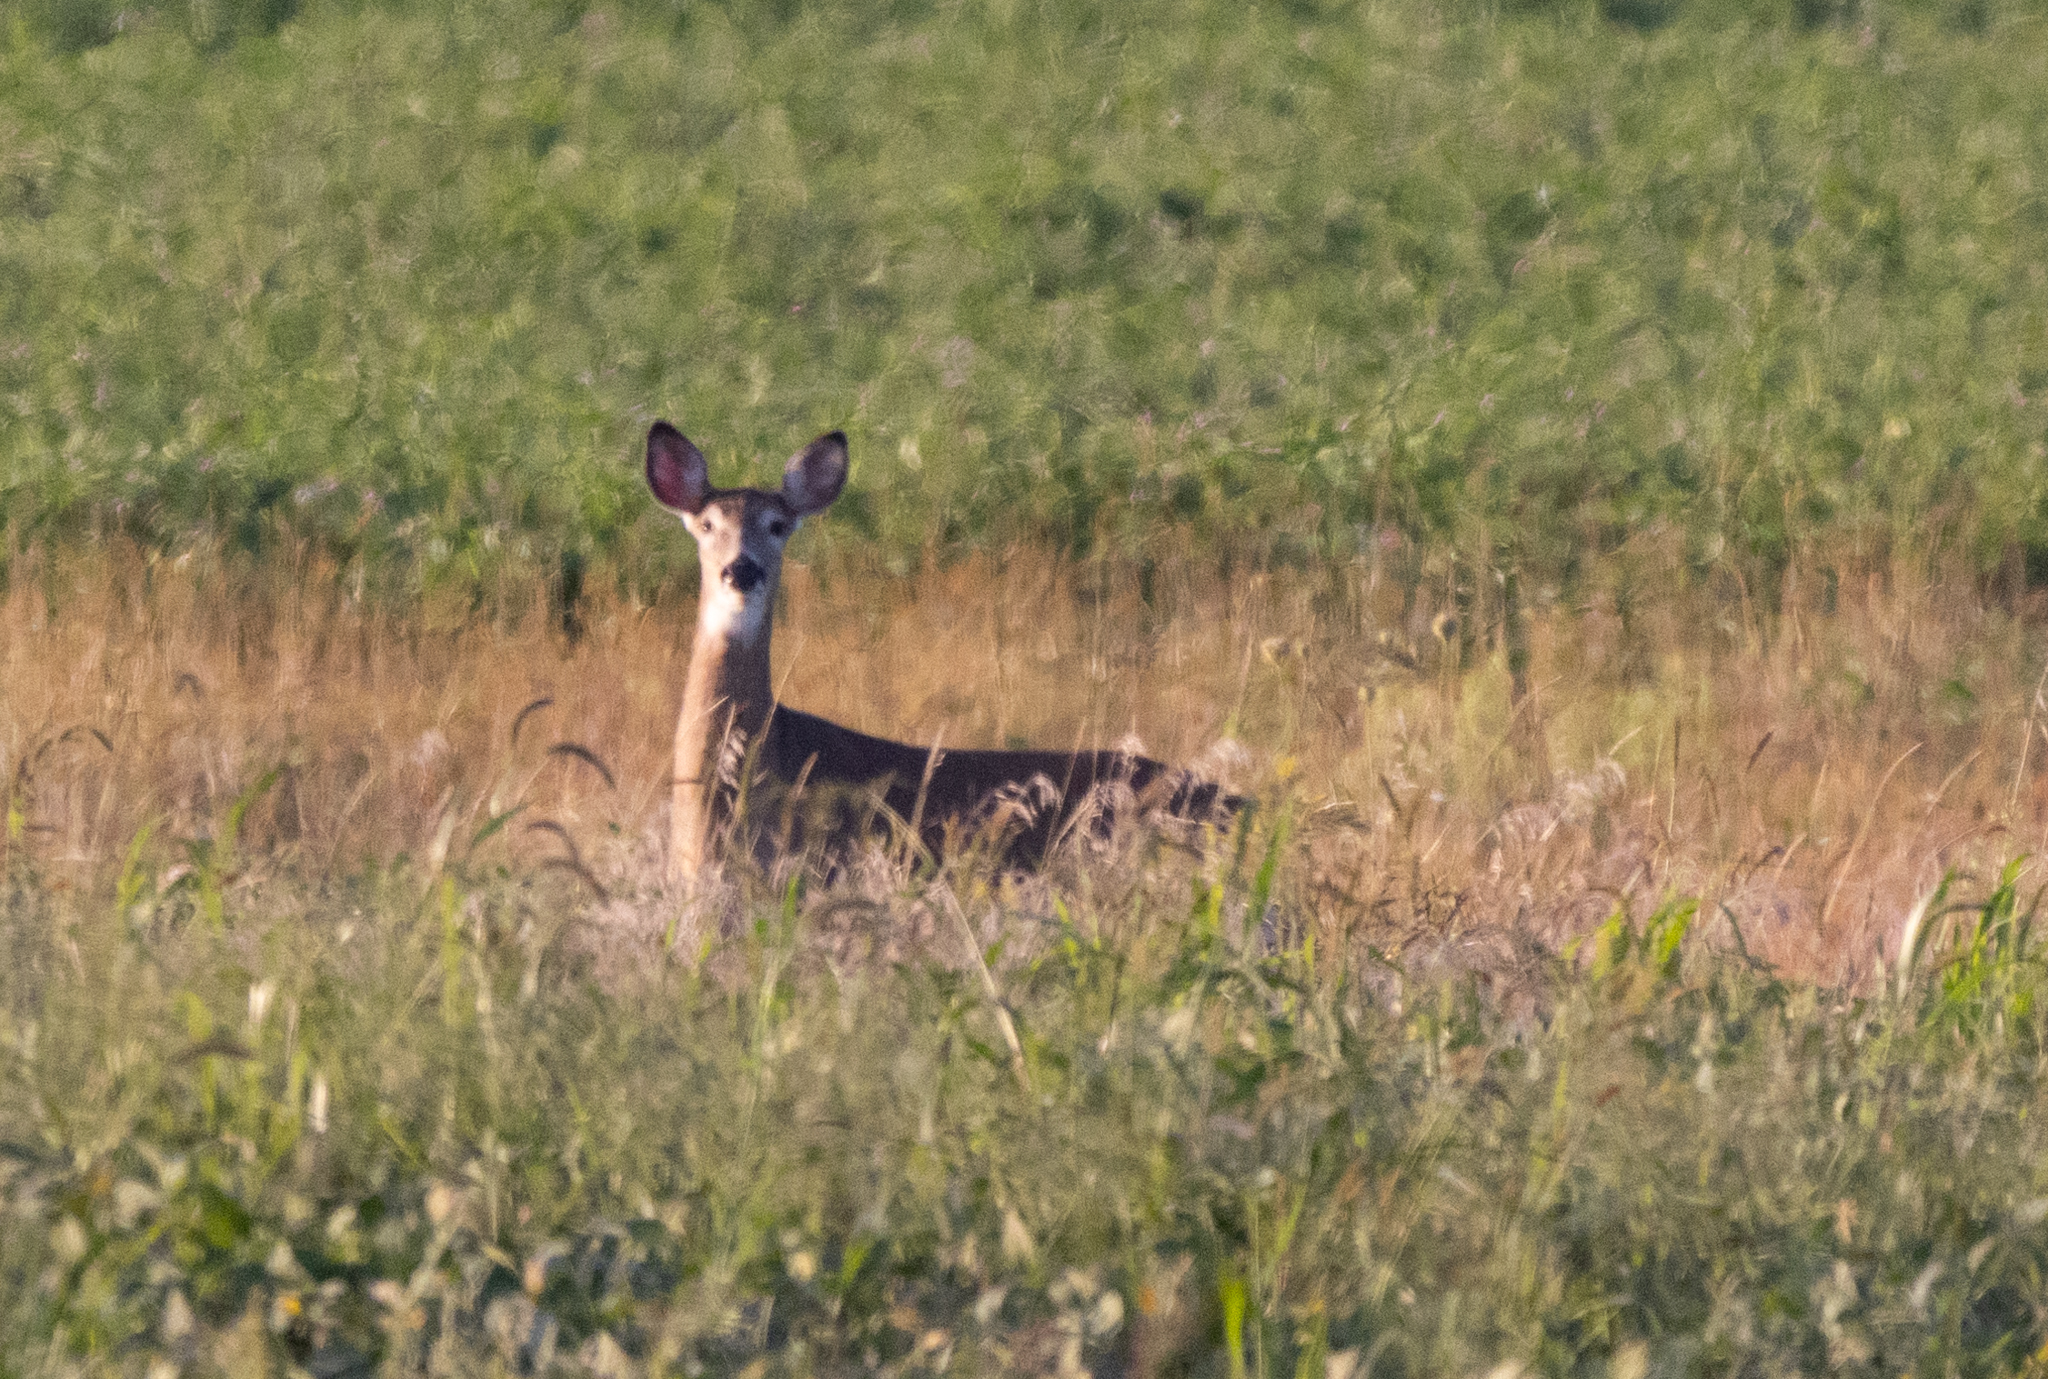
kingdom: Animalia
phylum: Chordata
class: Mammalia
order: Artiodactyla
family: Cervidae
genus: Odocoileus
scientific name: Odocoileus virginianus
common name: White-tailed deer
